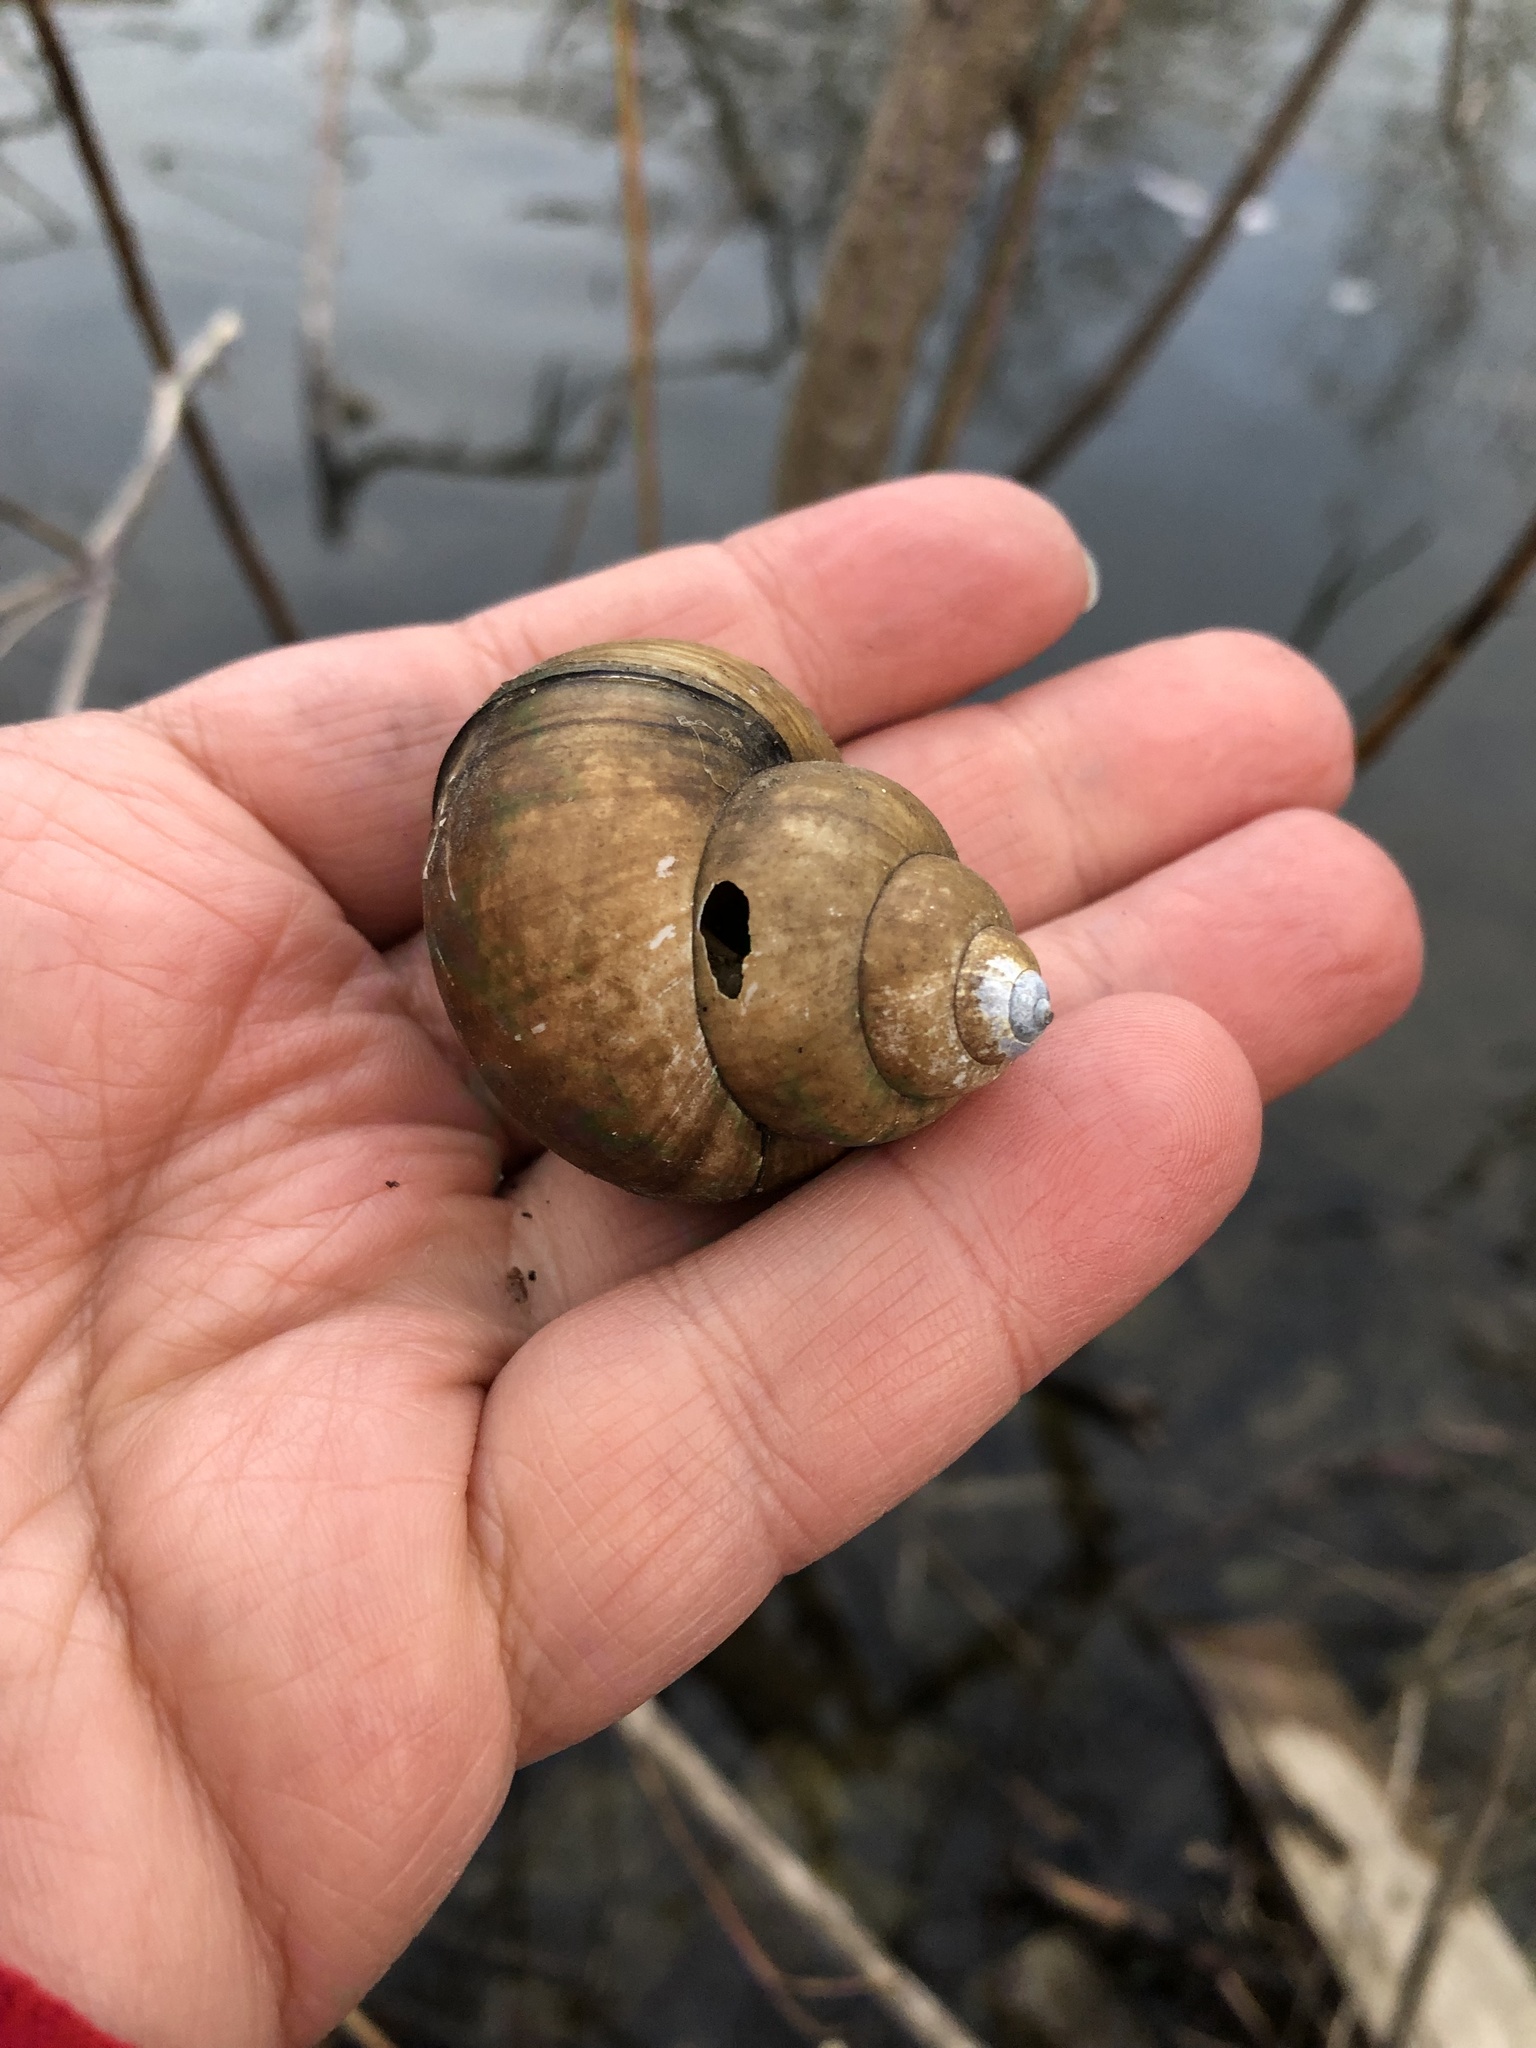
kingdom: Animalia
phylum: Mollusca
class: Gastropoda
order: Architaenioglossa
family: Viviparidae
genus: Cipangopaludina
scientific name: Cipangopaludina chinensis
